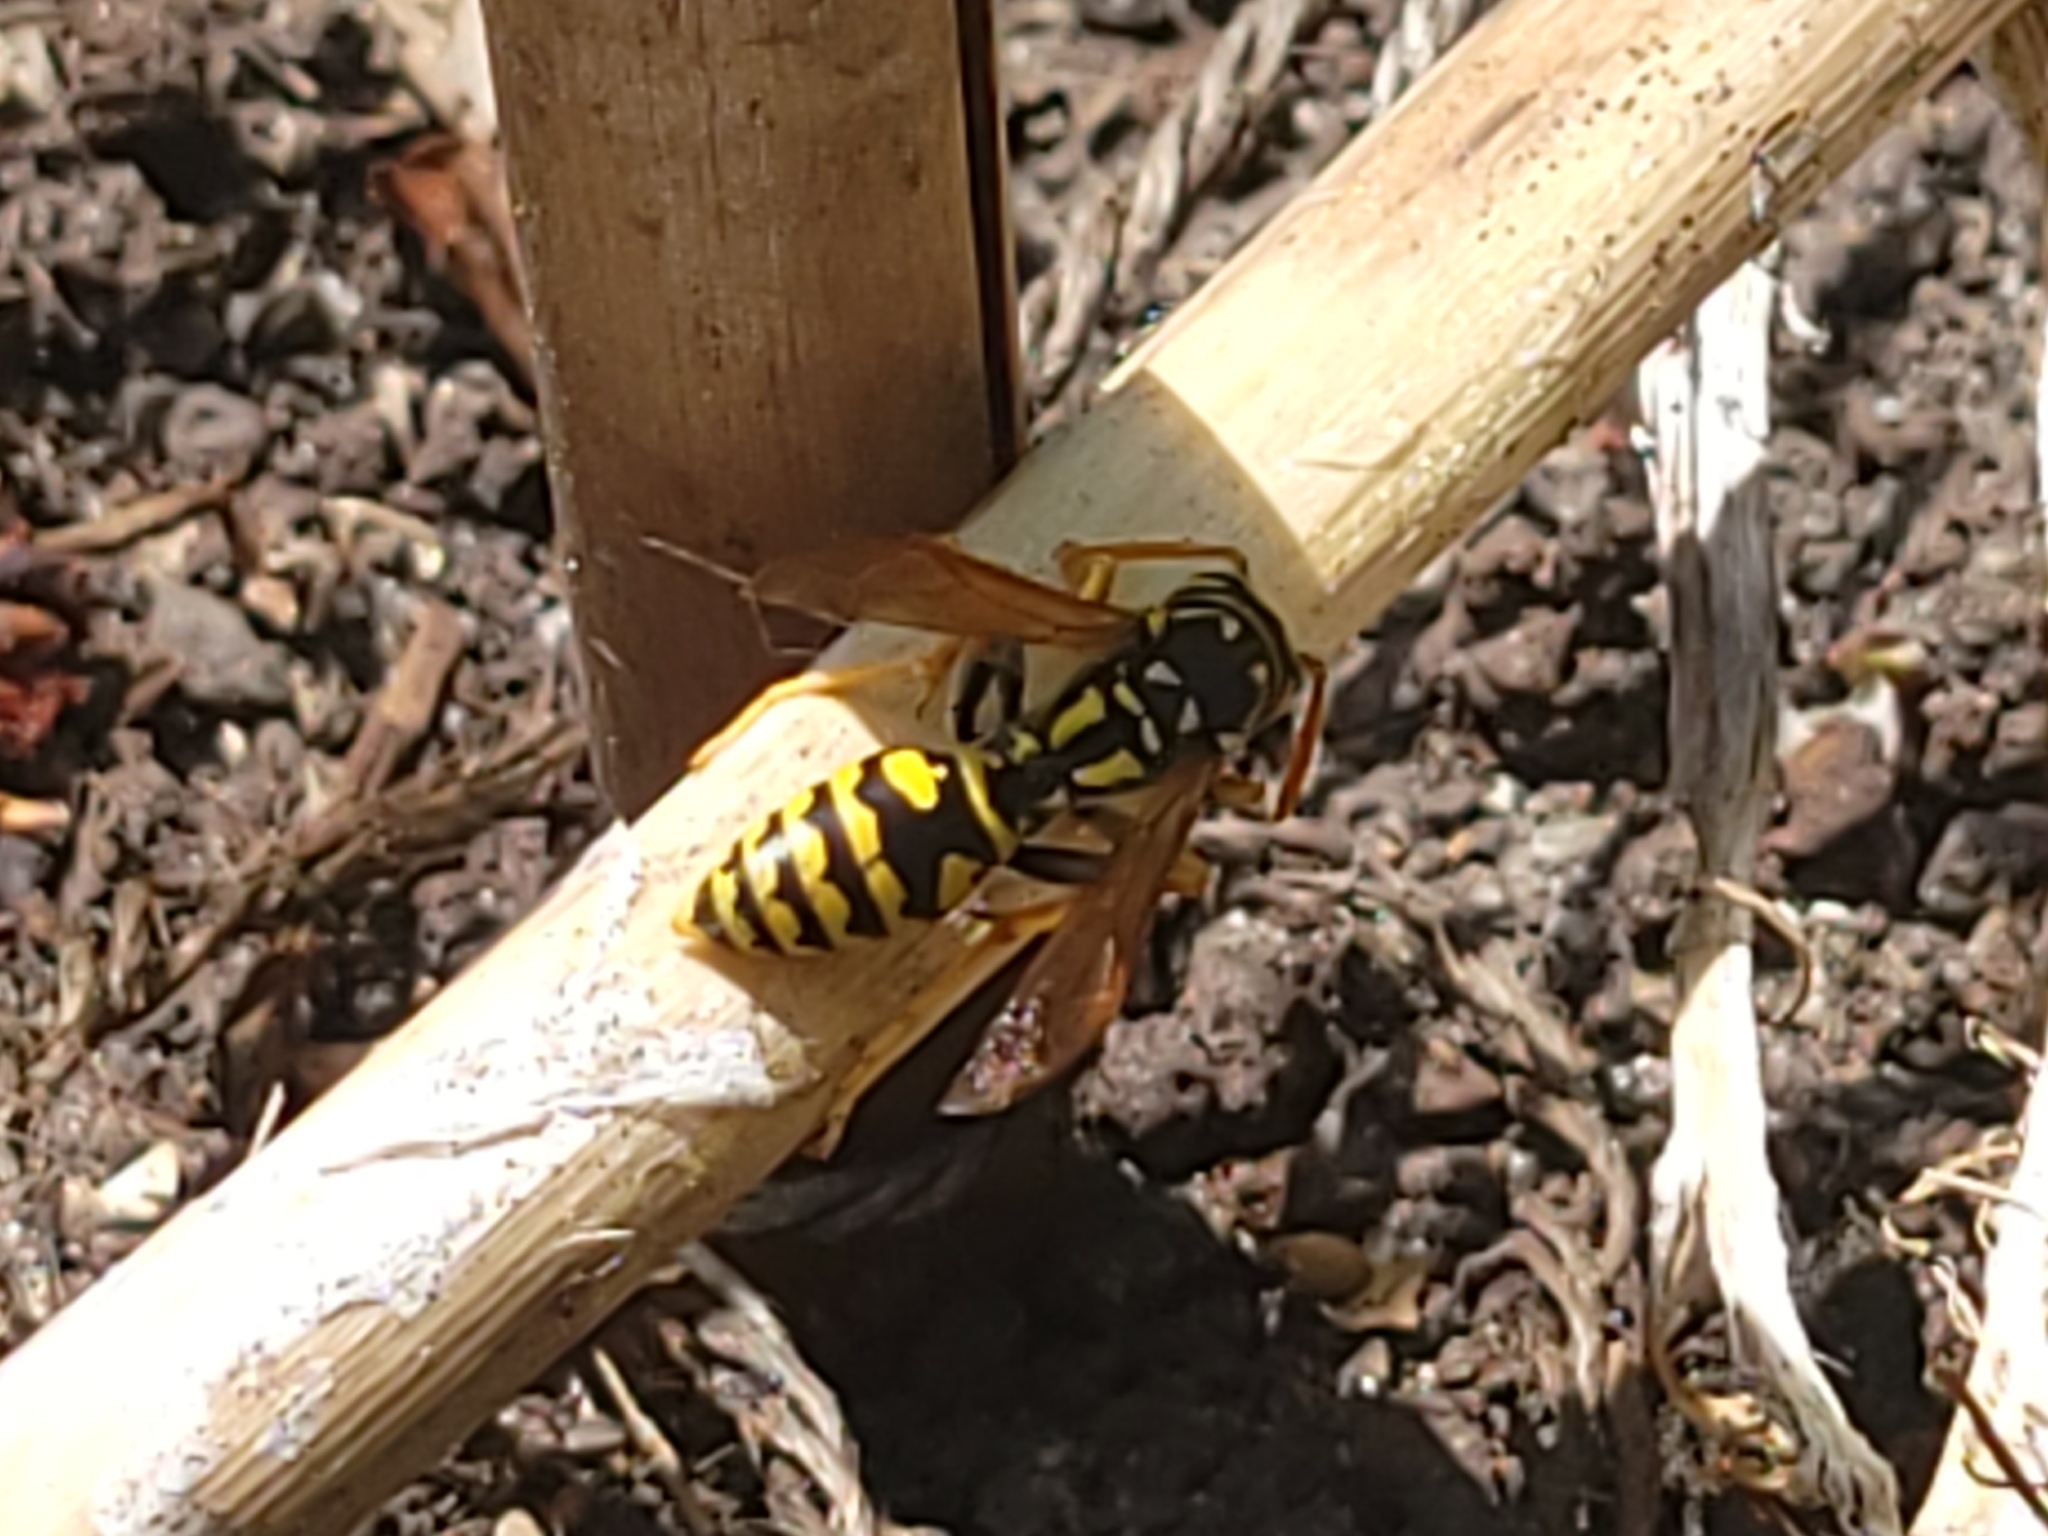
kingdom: Animalia
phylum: Arthropoda
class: Insecta
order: Hymenoptera
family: Eumenidae
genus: Polistes
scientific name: Polistes dominula
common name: Paper wasp
